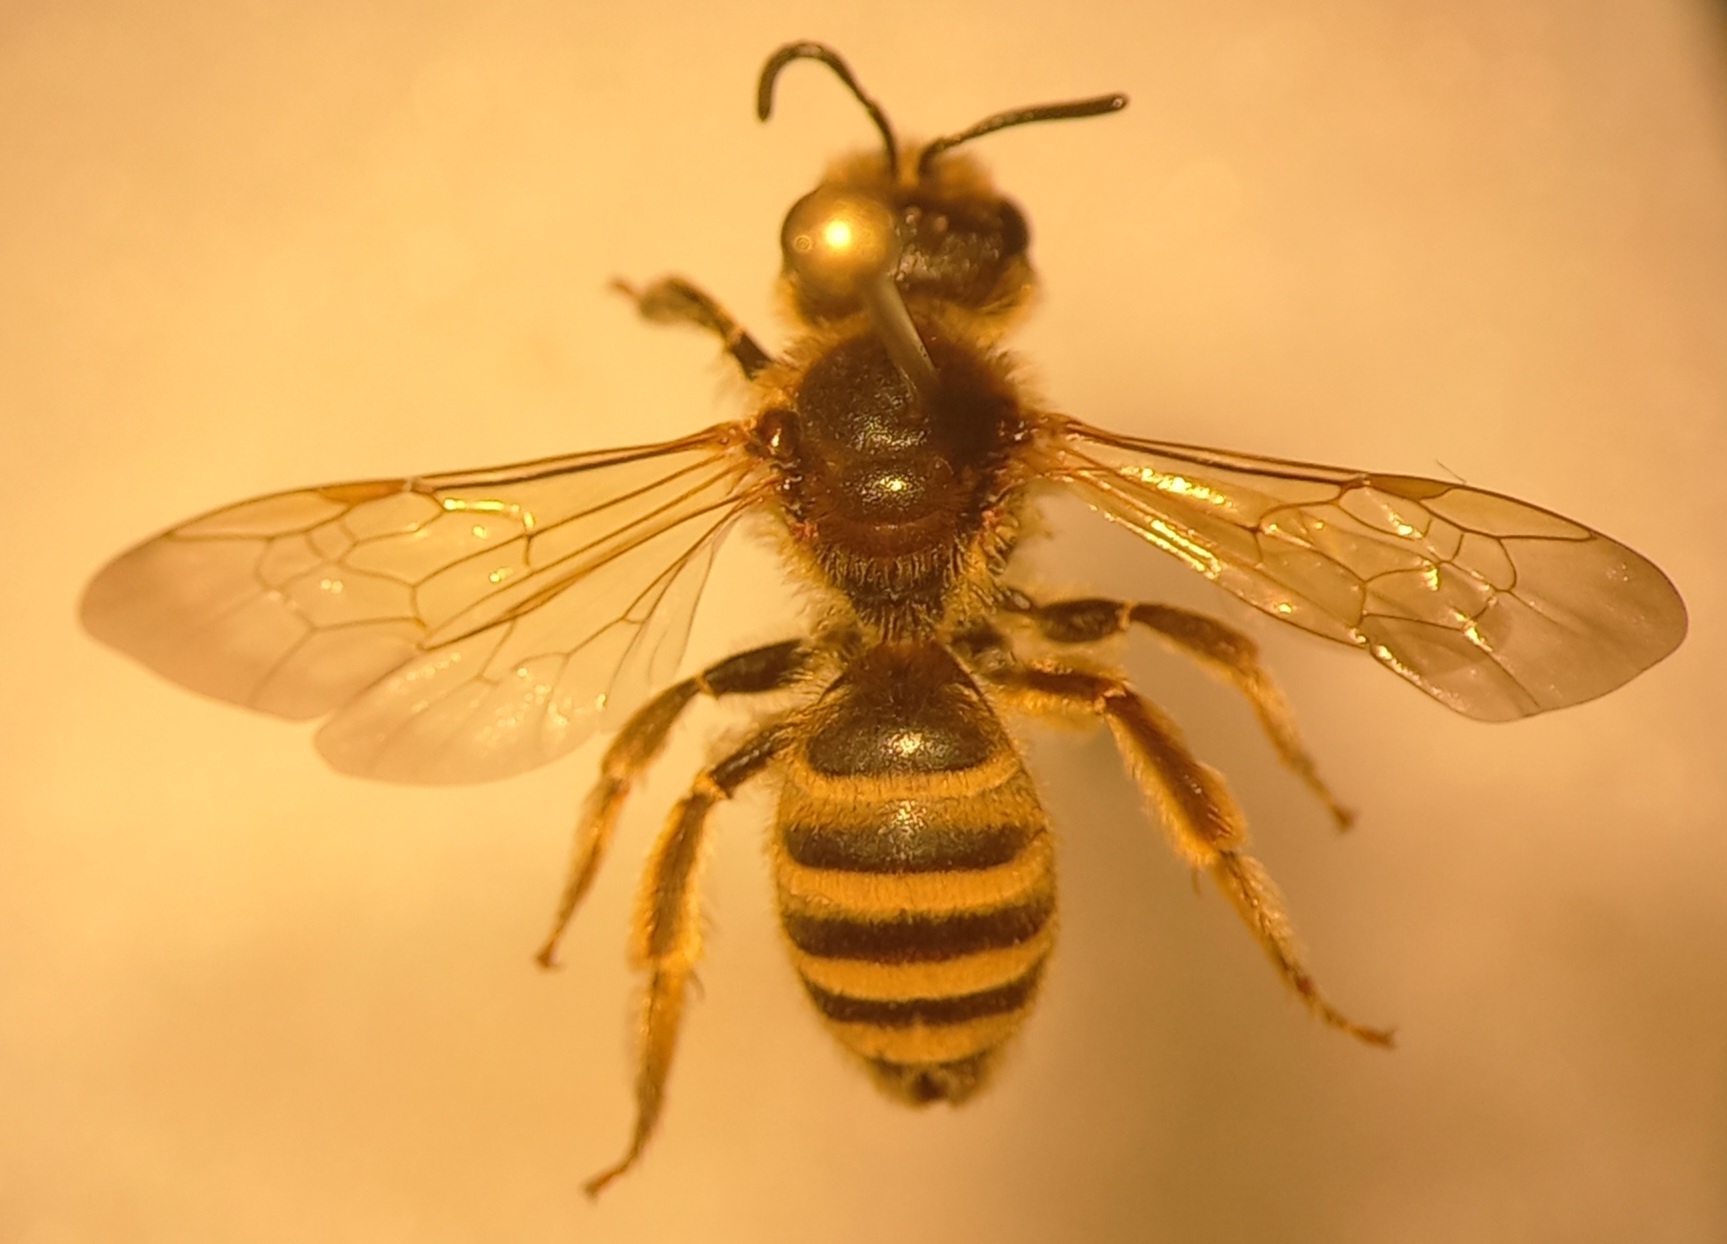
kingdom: Animalia
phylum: Arthropoda
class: Insecta
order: Hymenoptera
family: Halictidae
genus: Halictus
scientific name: Halictus scabiosae
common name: Great banded furrow bee
